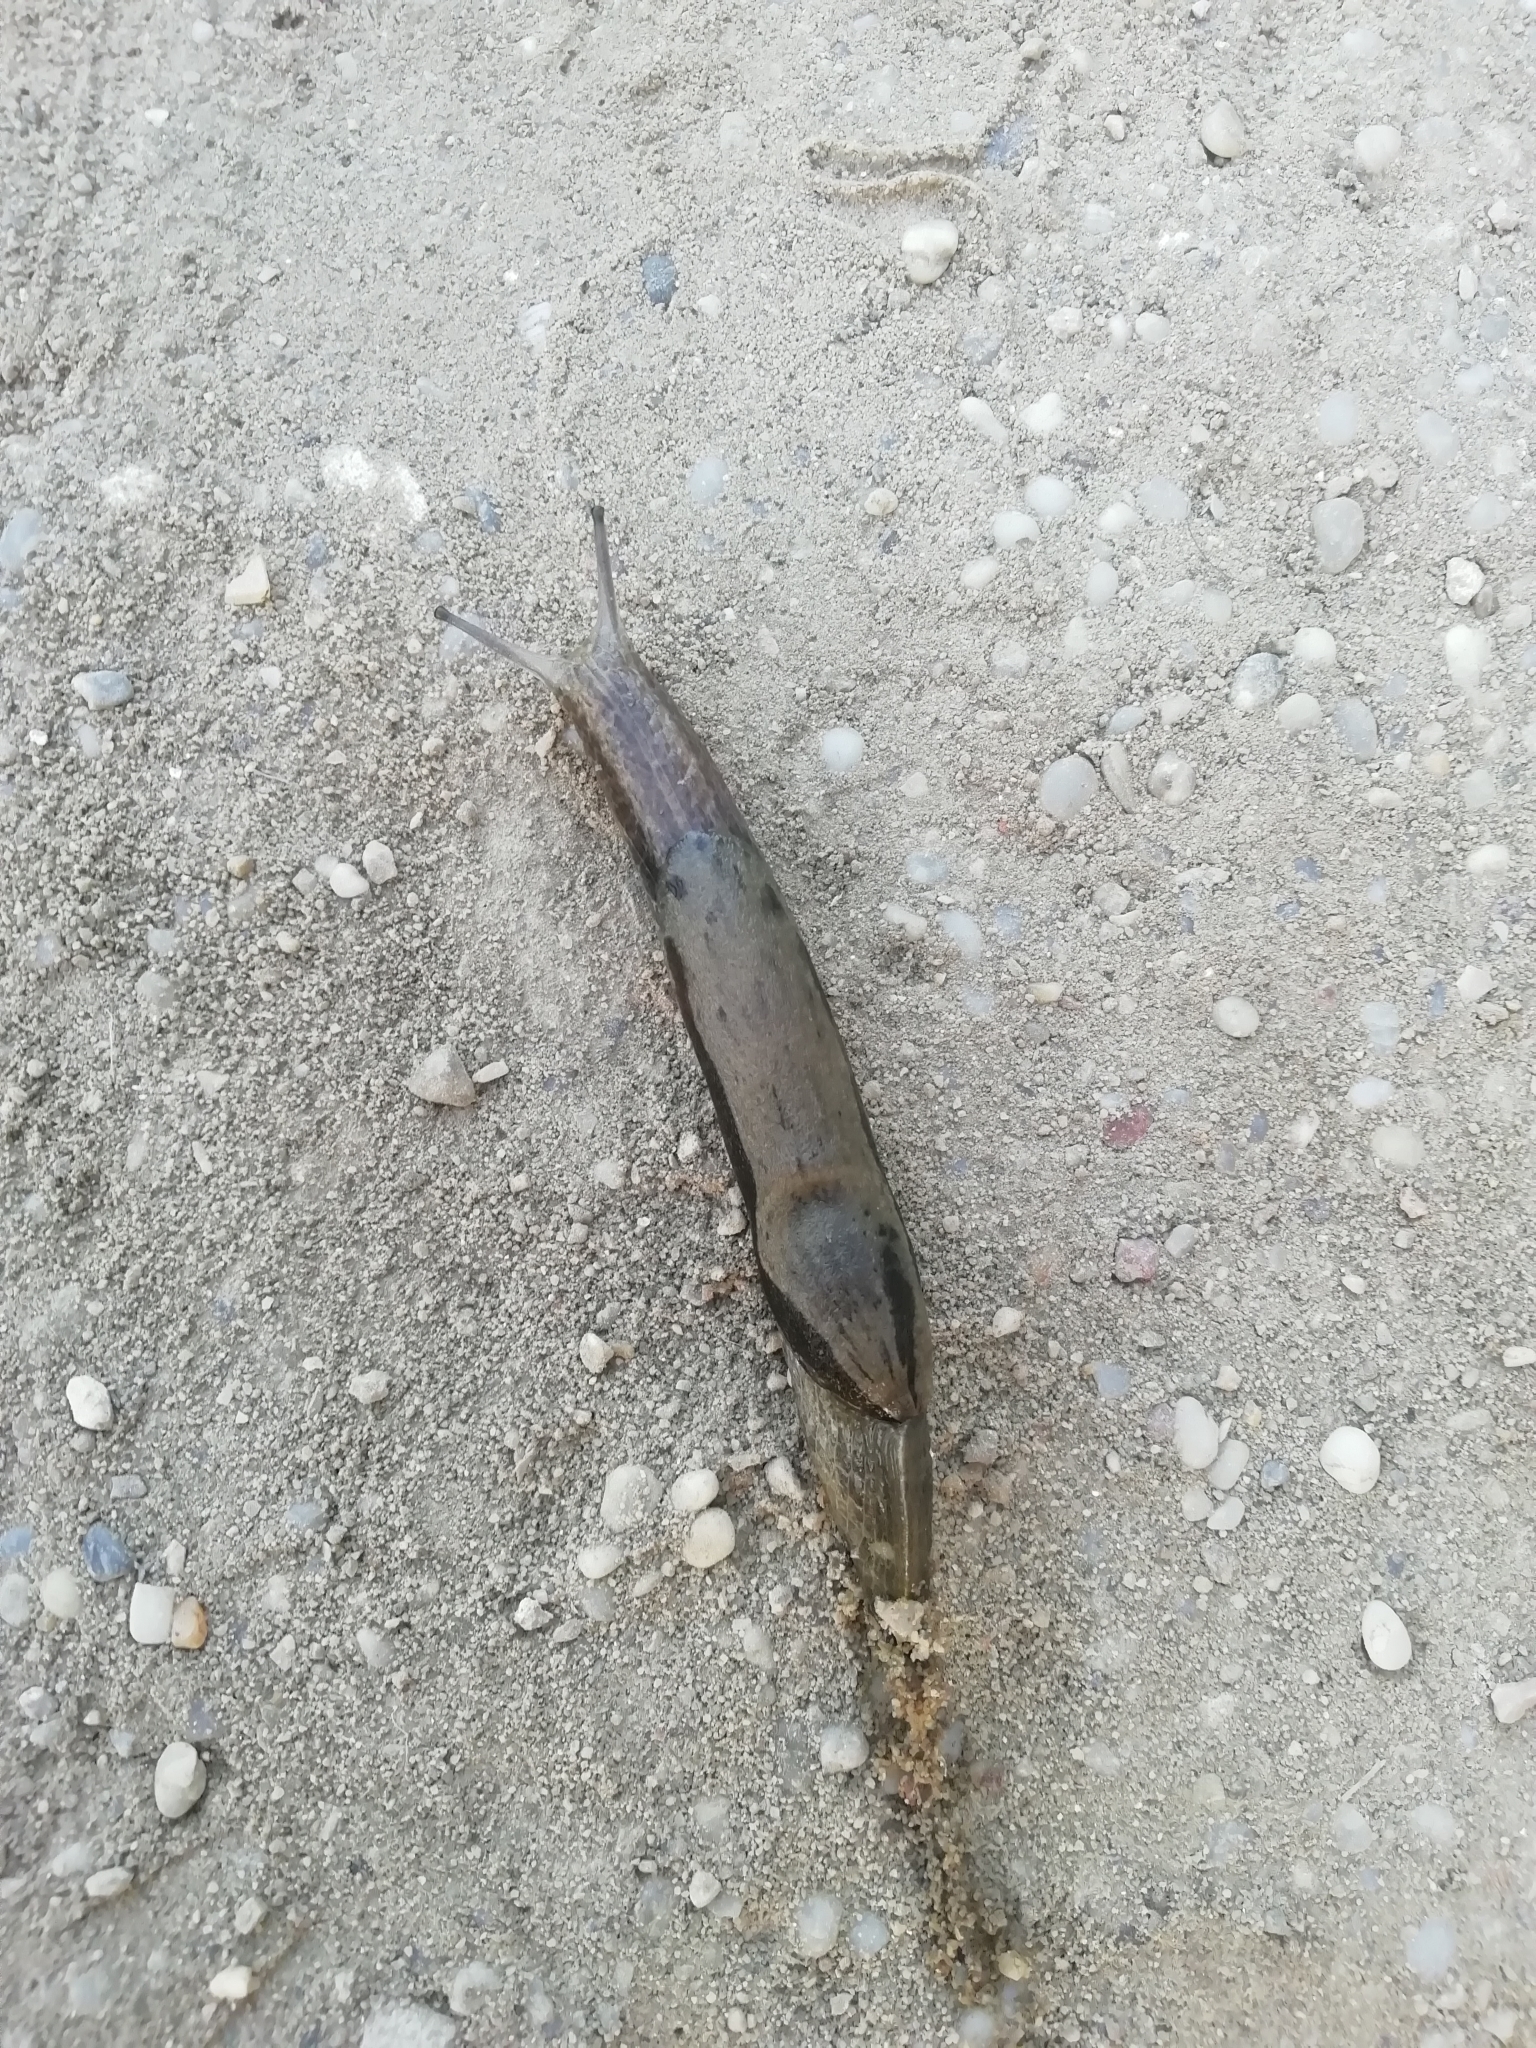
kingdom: Animalia
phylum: Mollusca
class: Gastropoda
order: Stylommatophora
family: Parmacellidae
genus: Drusia
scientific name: Drusia ibera
